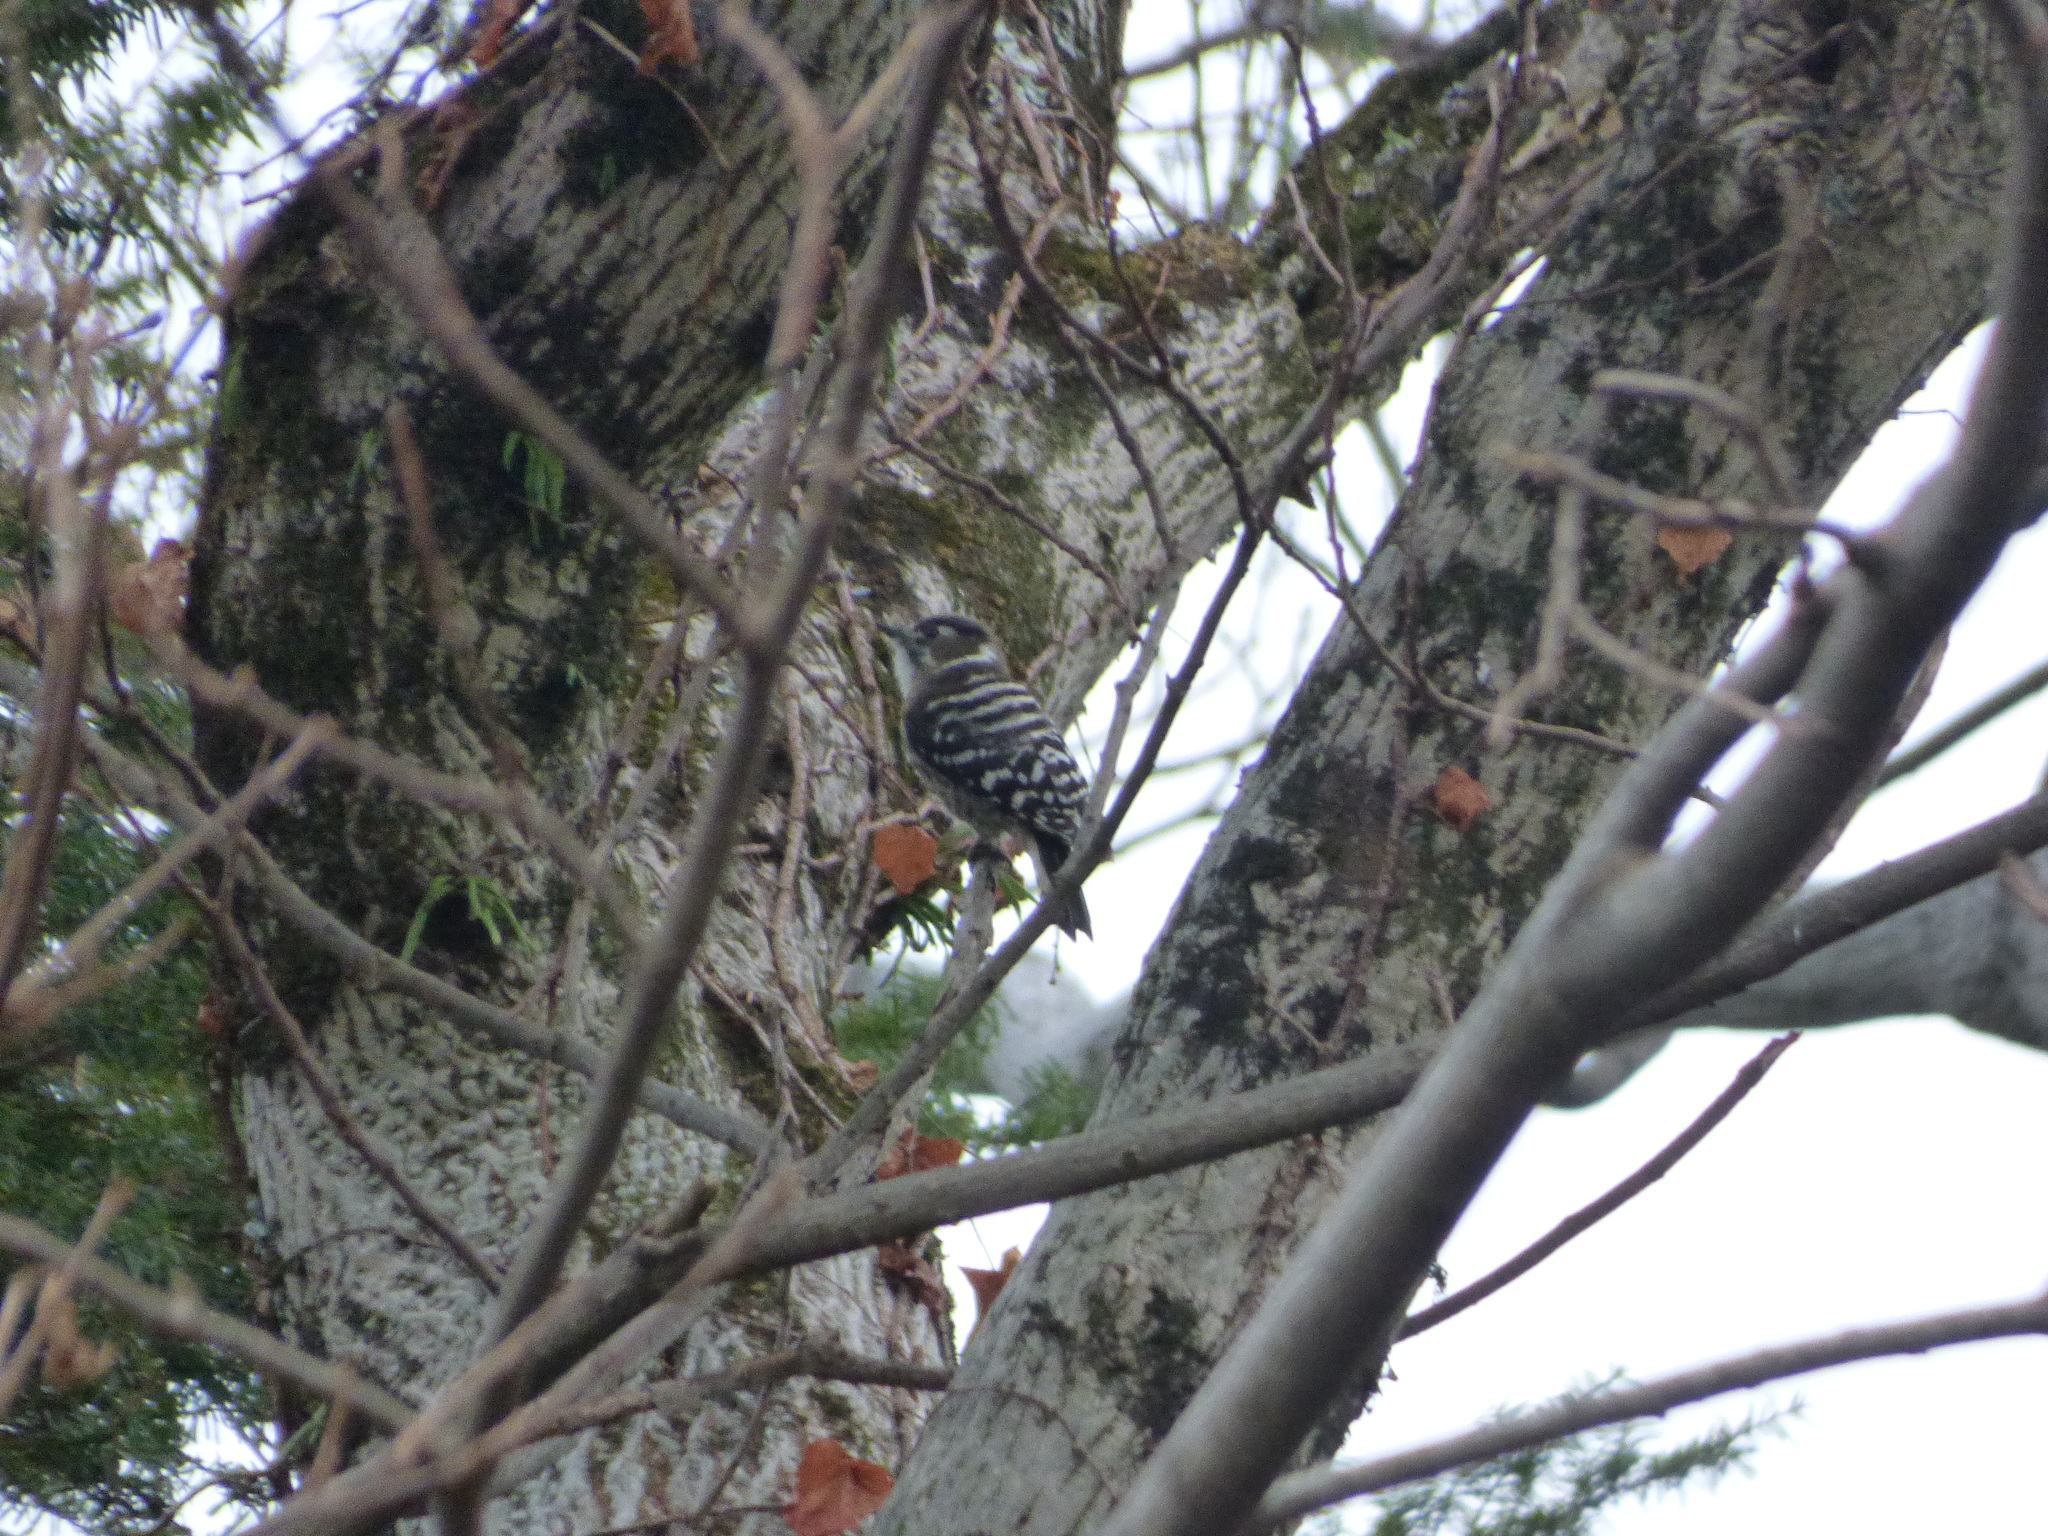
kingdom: Animalia
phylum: Chordata
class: Aves
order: Piciformes
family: Picidae
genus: Yungipicus
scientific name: Yungipicus kizuki
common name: Japanese pygmy woodpecker
